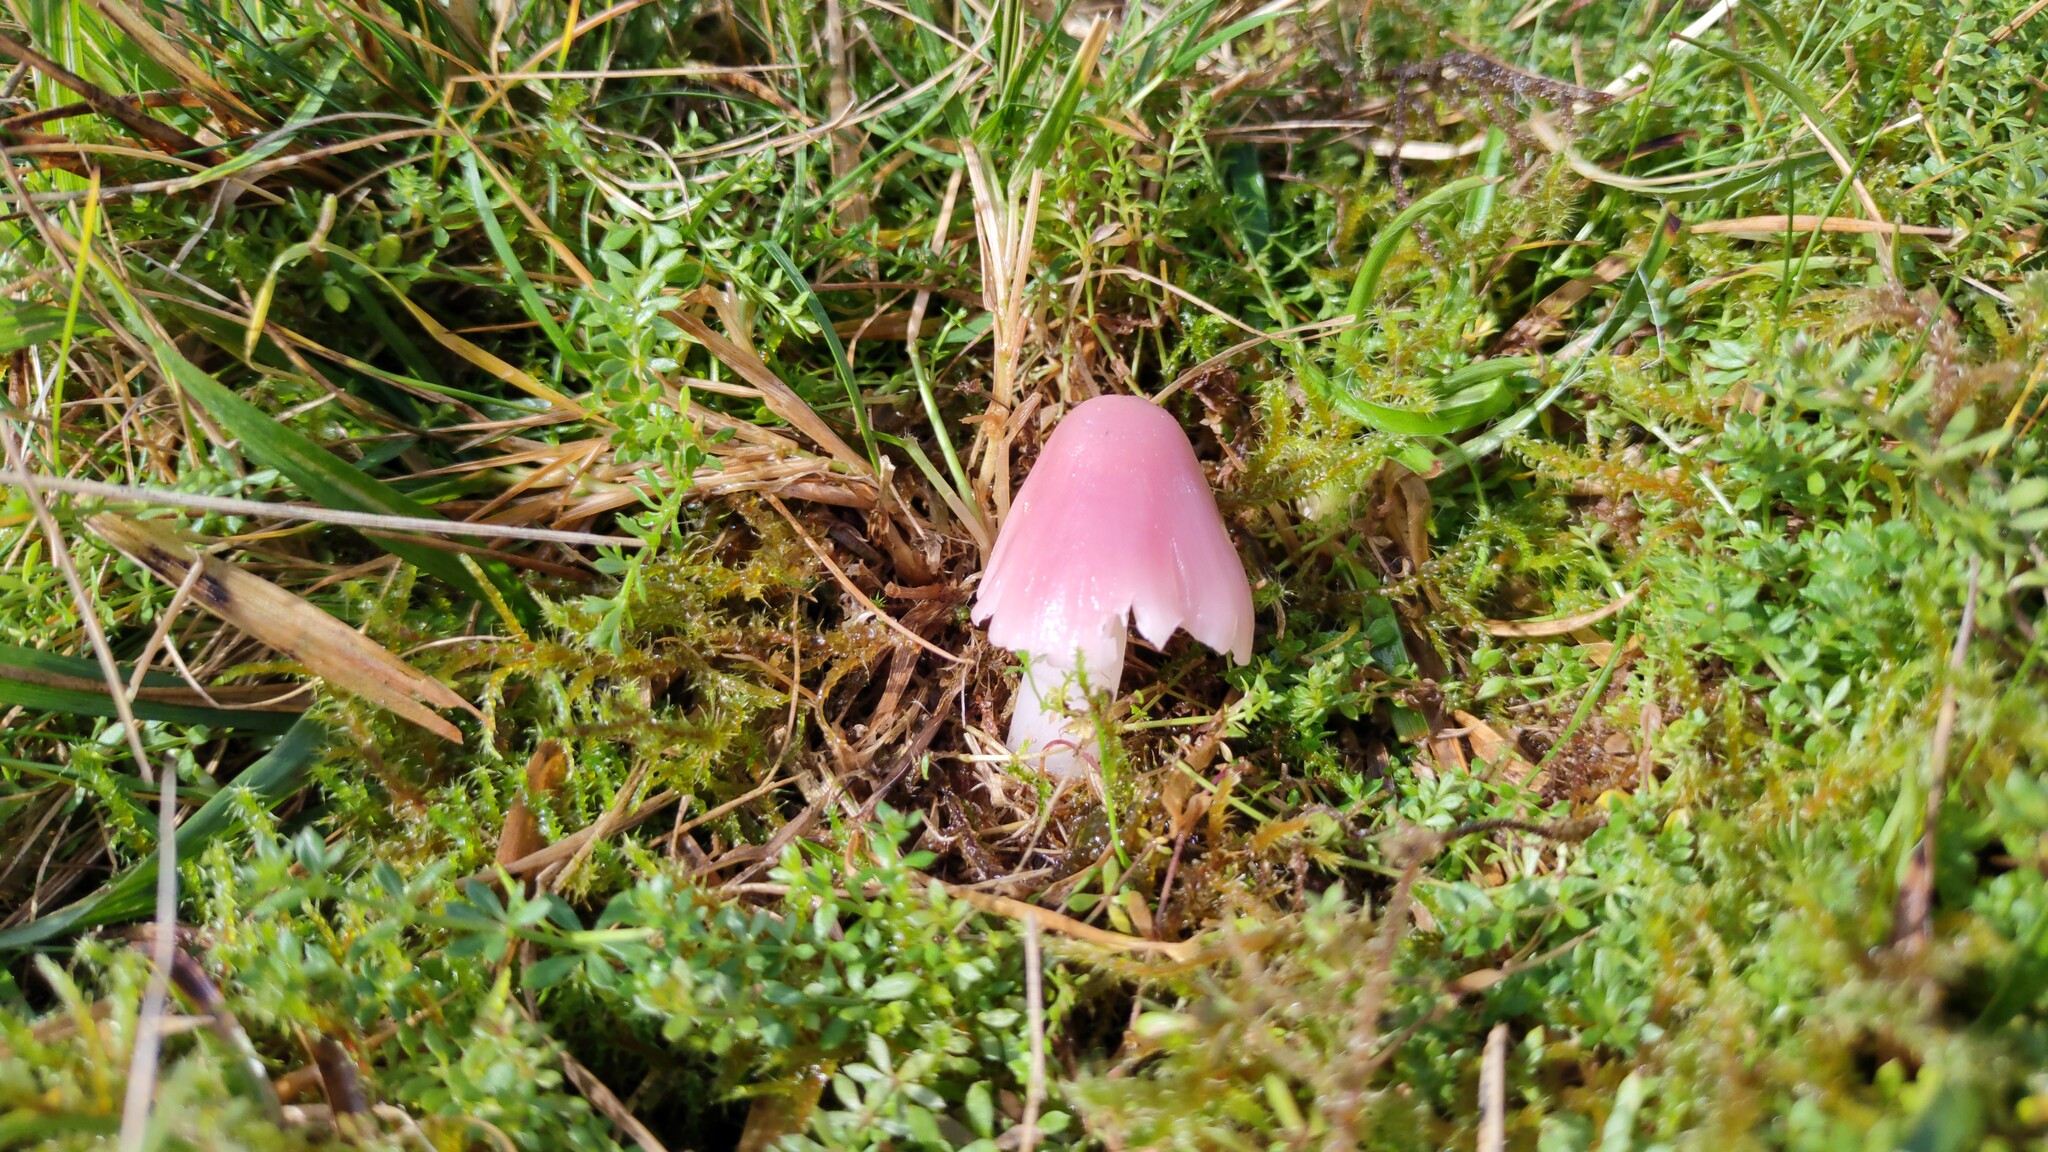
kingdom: Fungi
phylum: Basidiomycota
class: Agaricomycetes
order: Agaricales
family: Hygrophoraceae
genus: Porpolomopsis
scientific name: Porpolomopsis calyptriformis
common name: Pink waxcap
